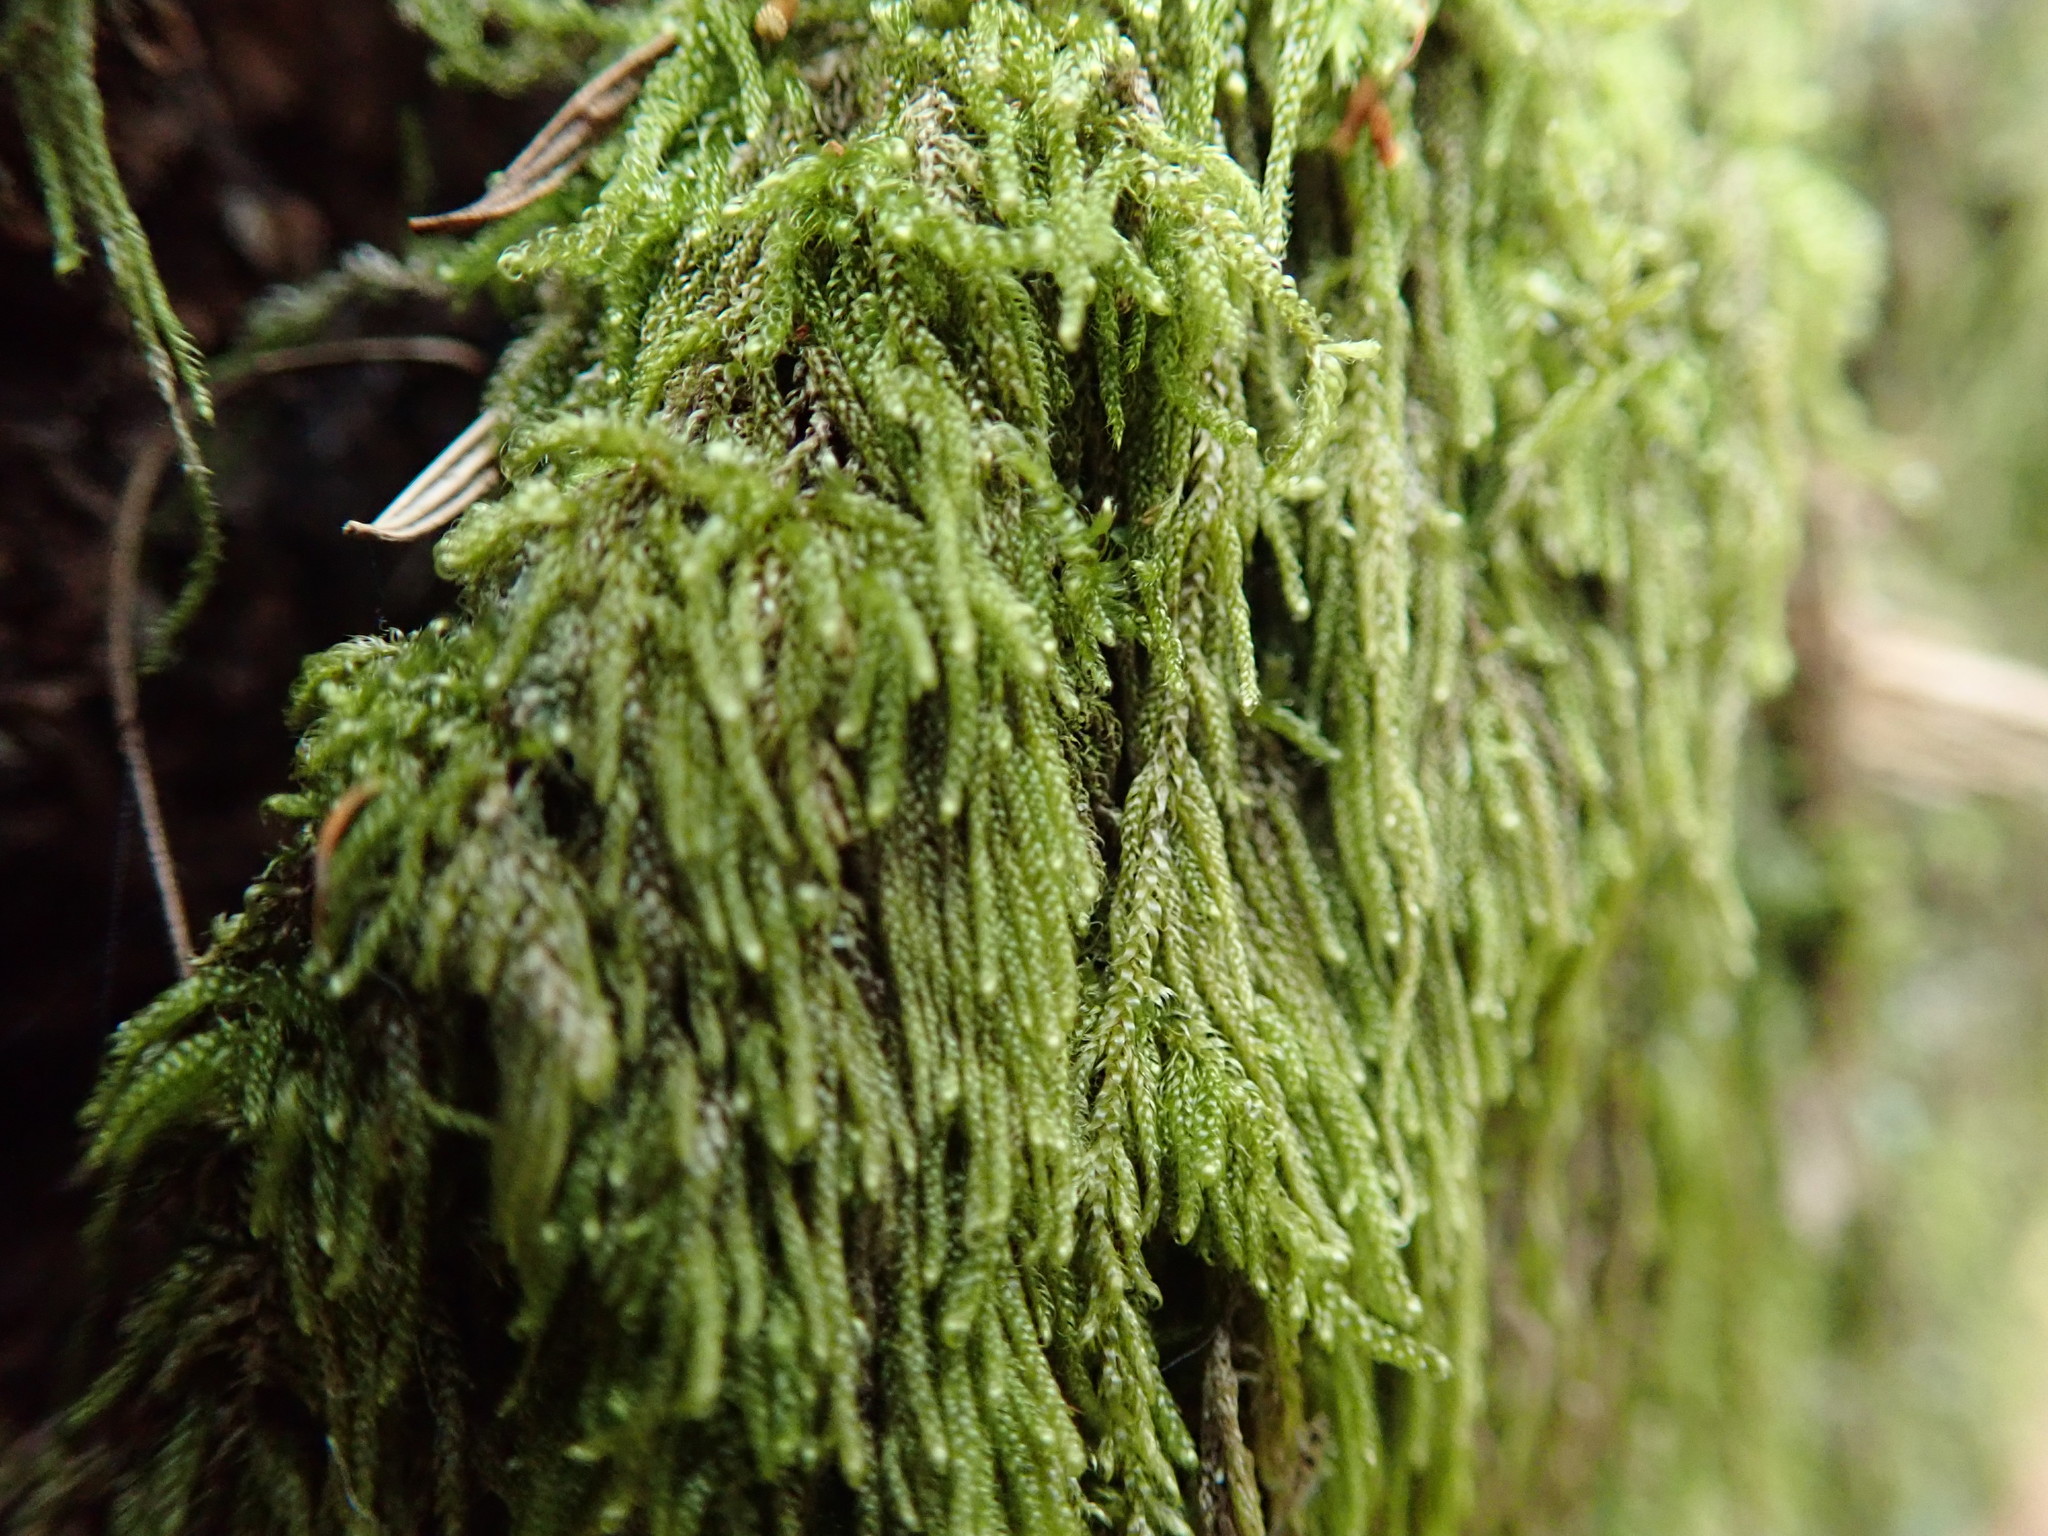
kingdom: Plantae
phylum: Bryophyta
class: Bryopsida
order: Hypnales
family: Pylaisiadelphaceae
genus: Trochophyllohypnum
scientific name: Trochophyllohypnum circinale
